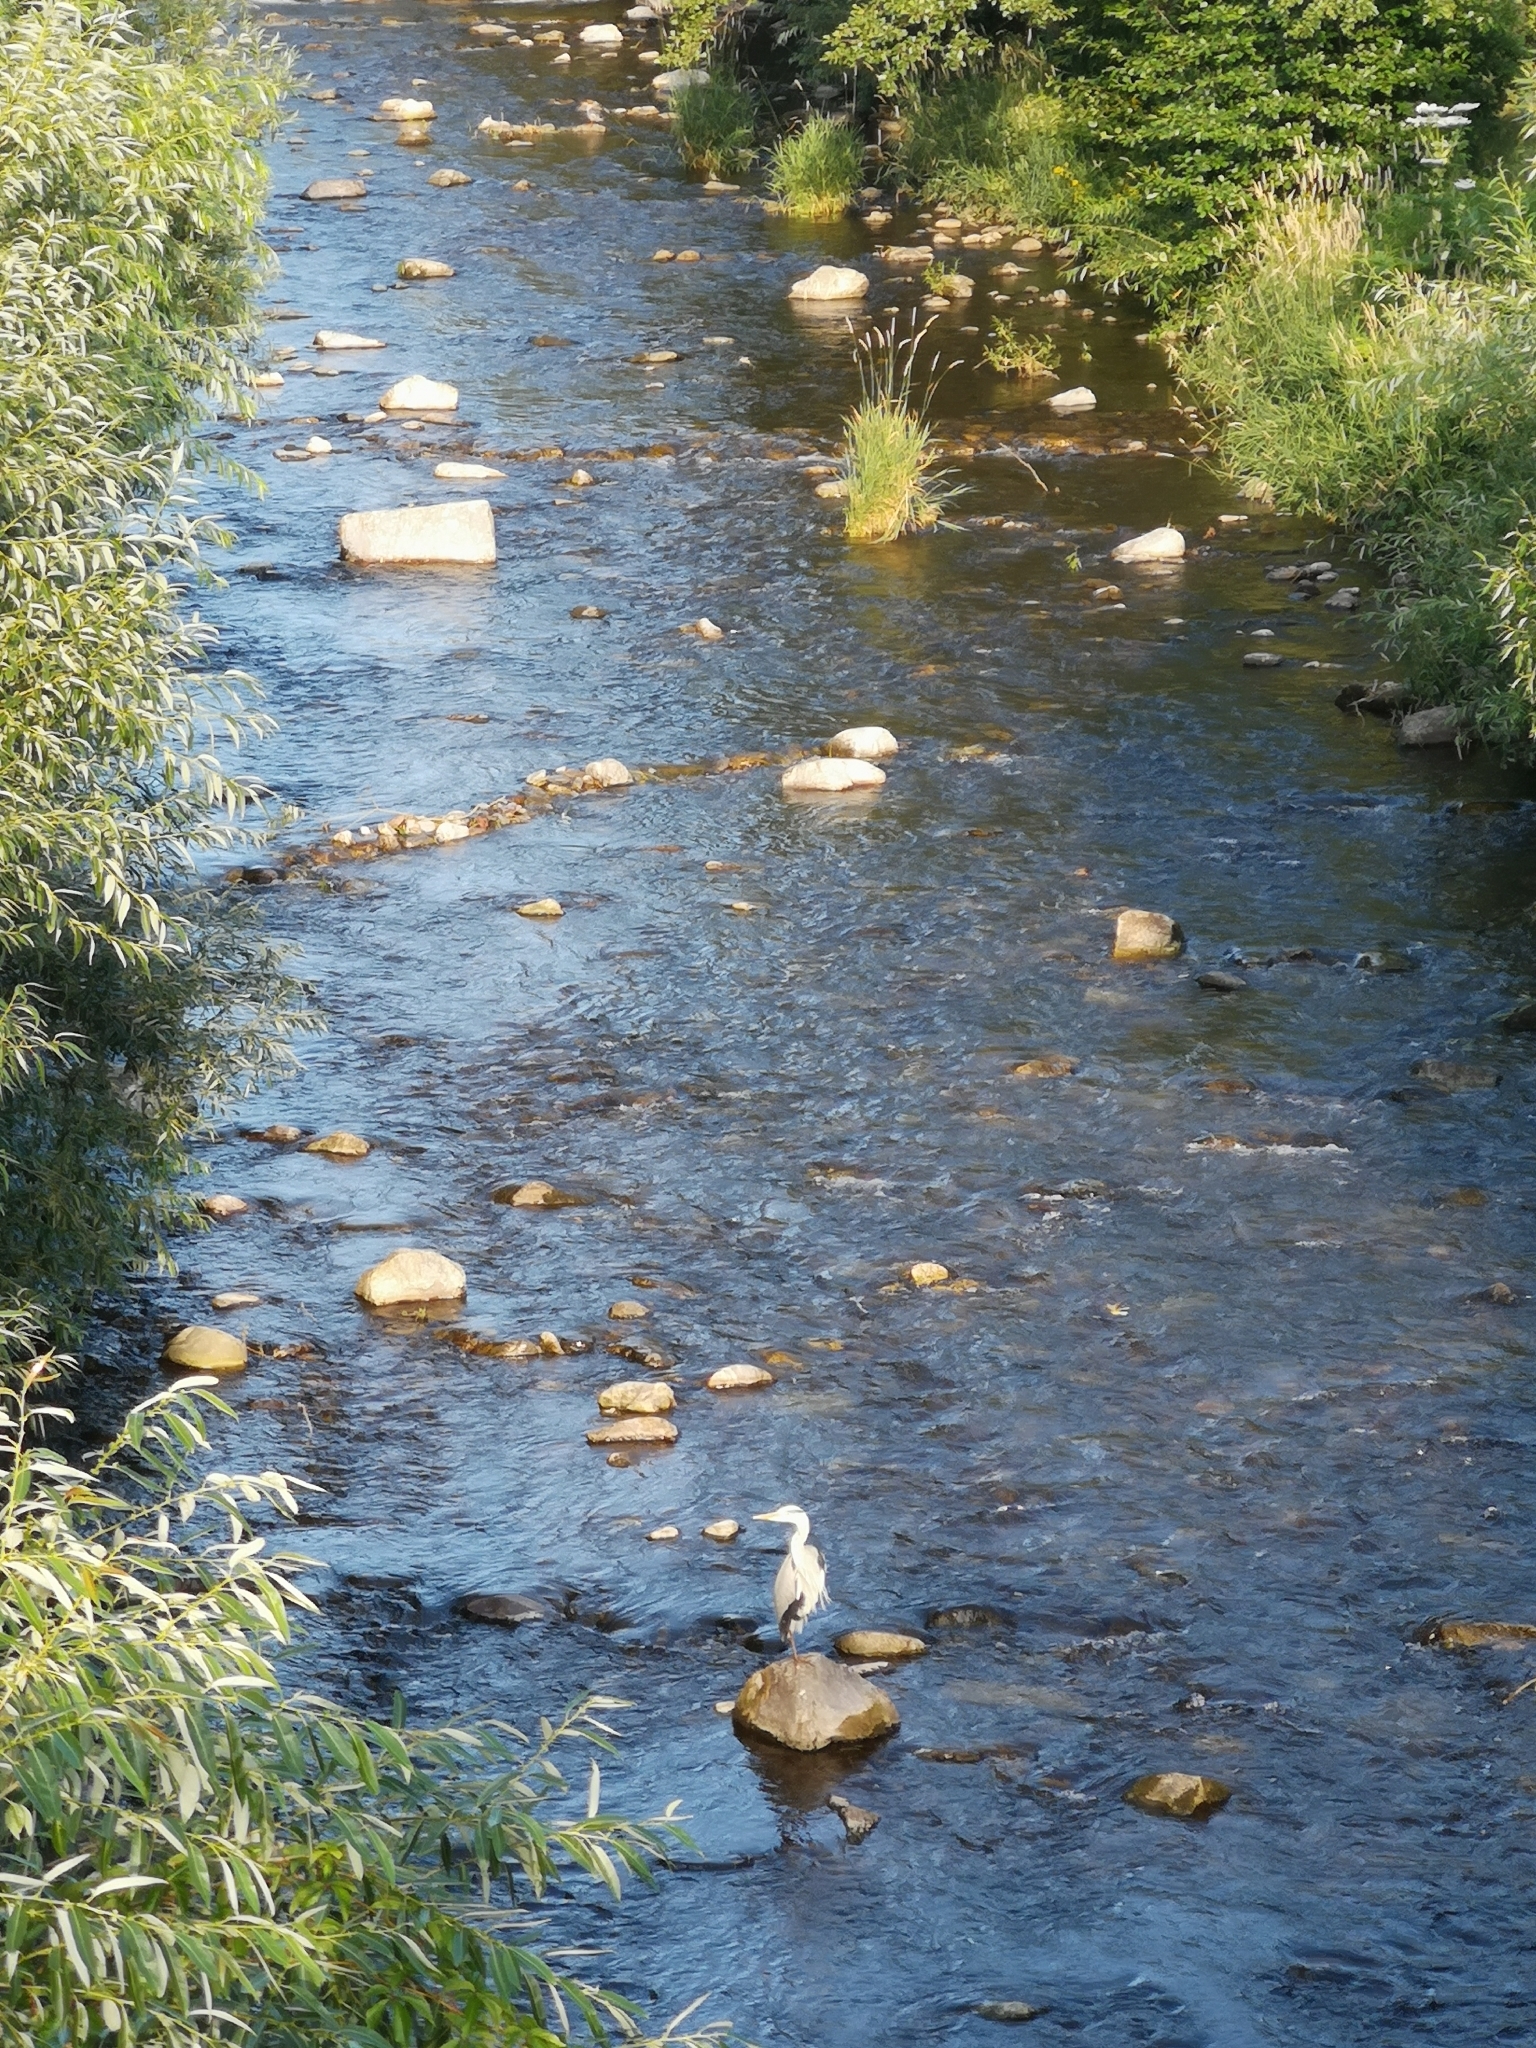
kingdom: Animalia
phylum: Chordata
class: Aves
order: Pelecaniformes
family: Ardeidae
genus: Ardea
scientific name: Ardea cinerea
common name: Grey heron
